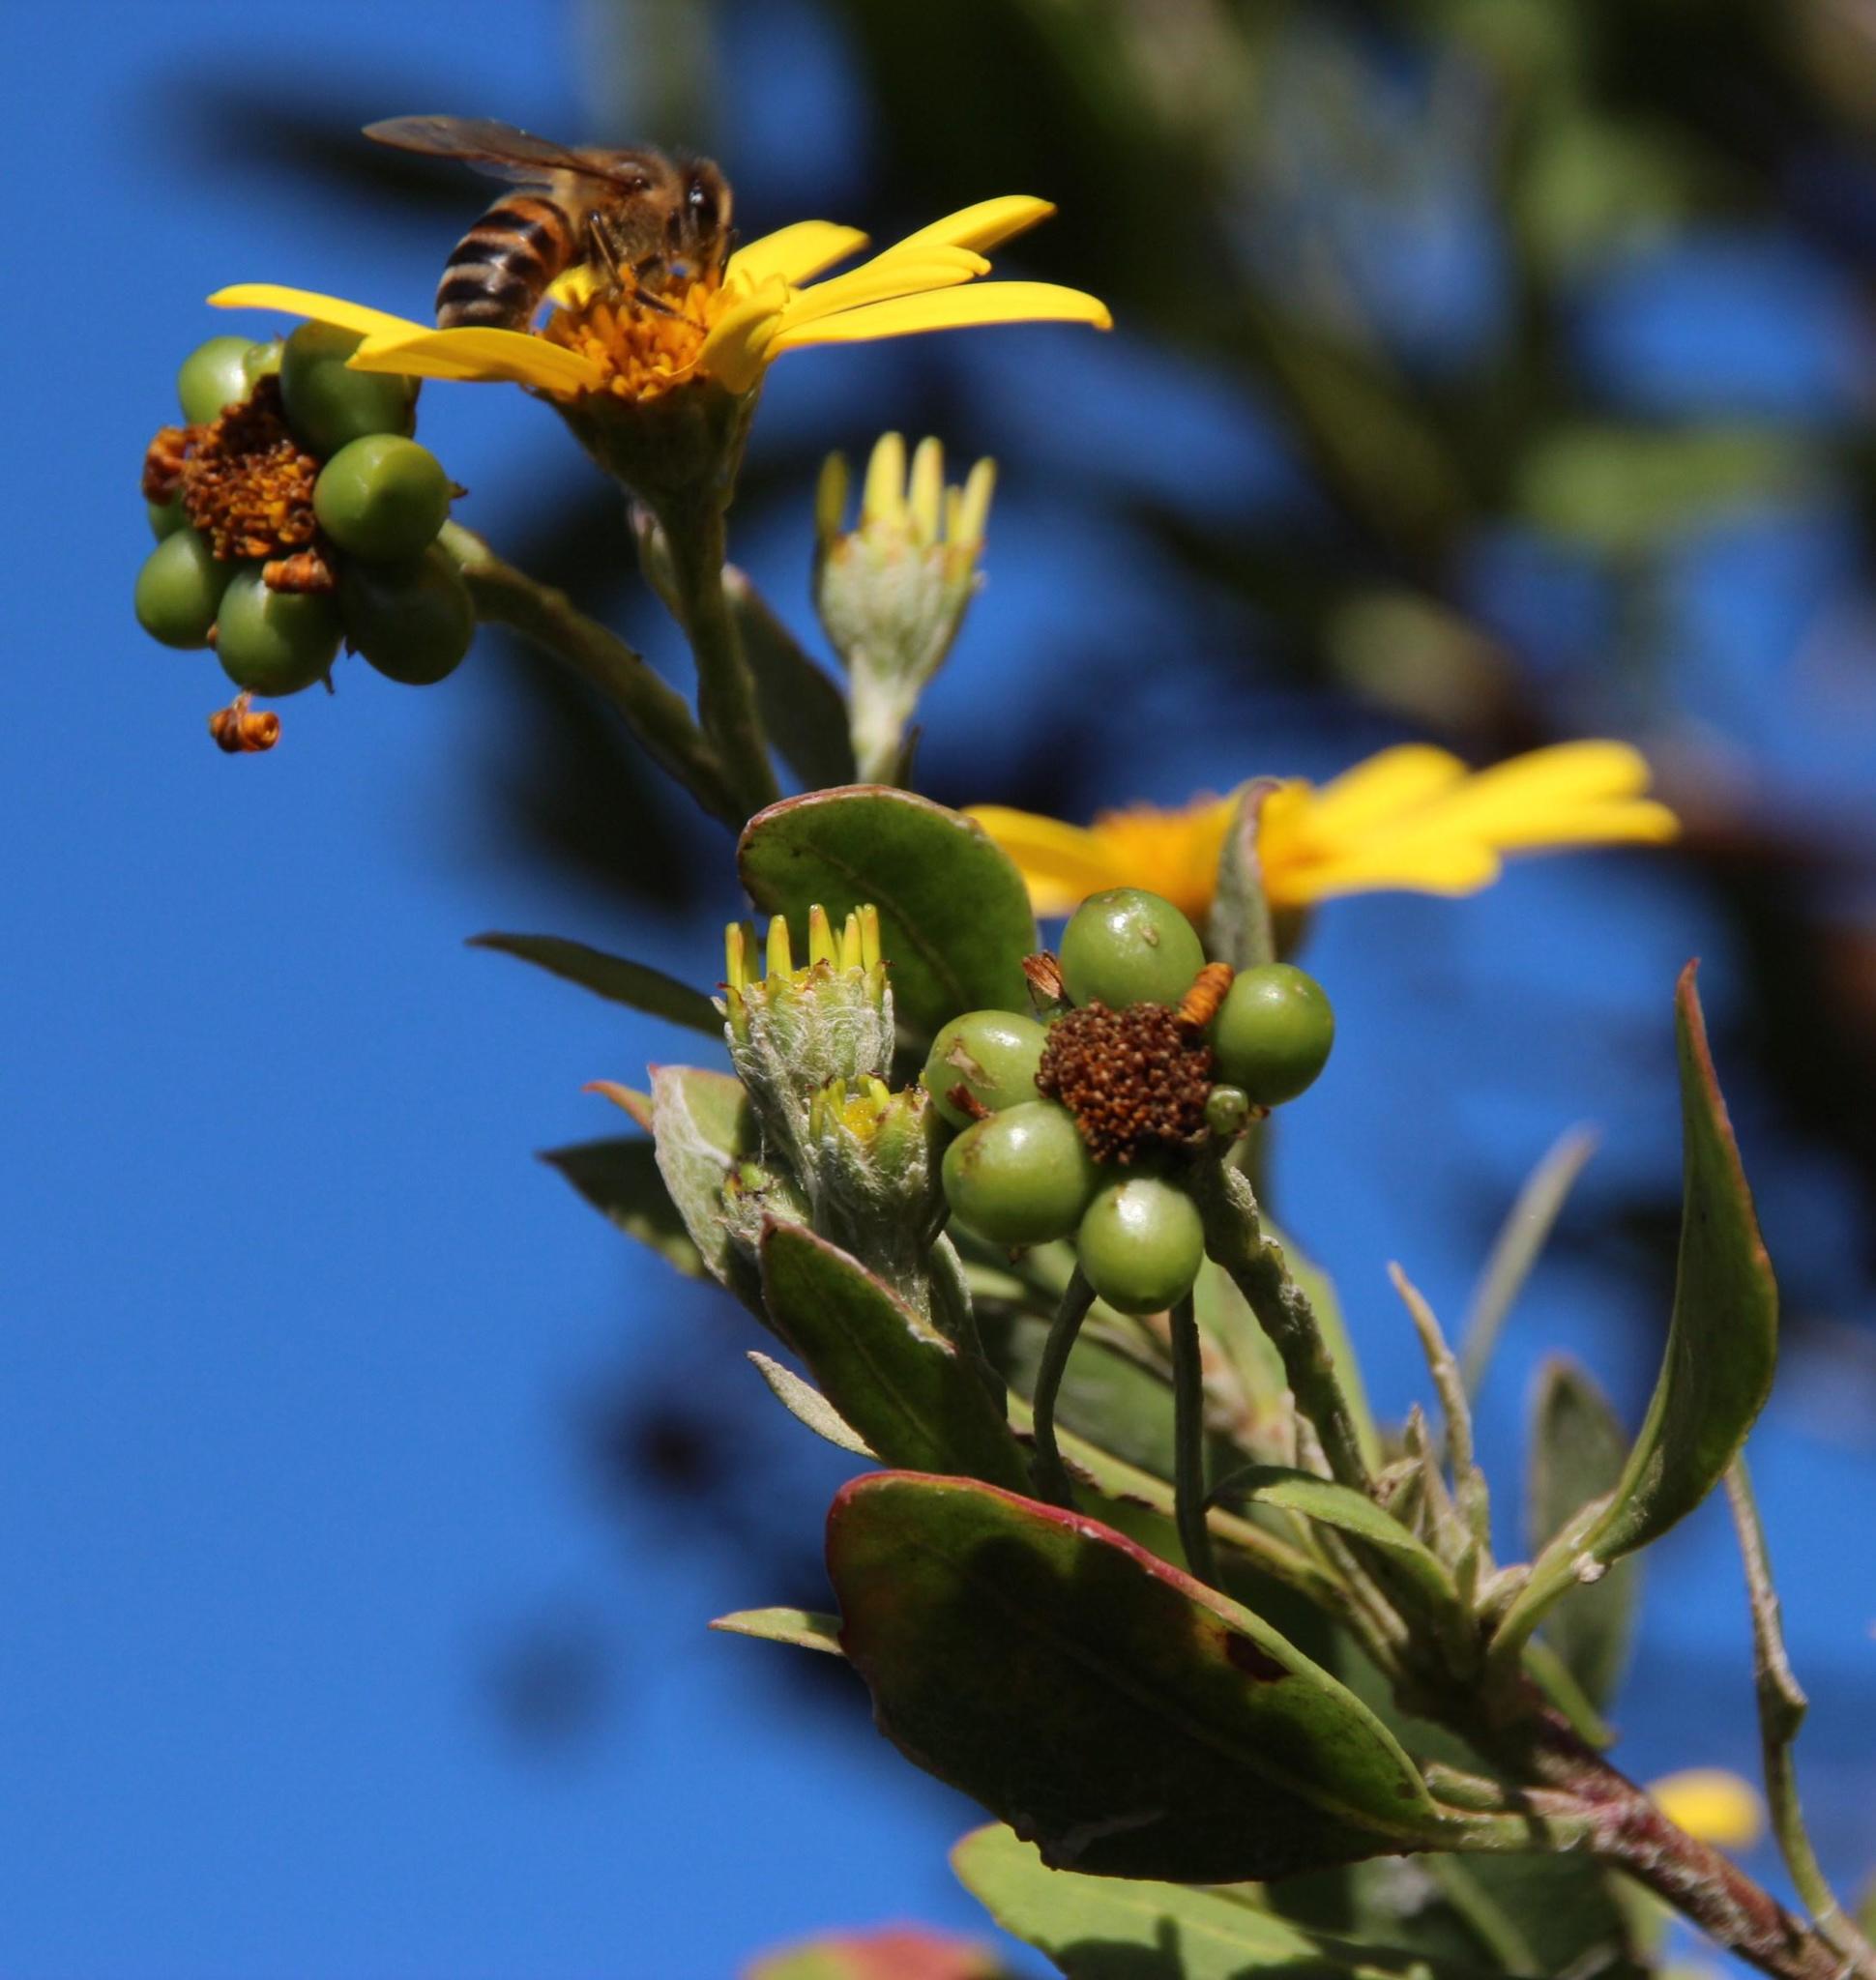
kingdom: Plantae
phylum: Tracheophyta
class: Magnoliopsida
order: Asterales
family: Asteraceae
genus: Osteospermum
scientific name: Osteospermum moniliferum
